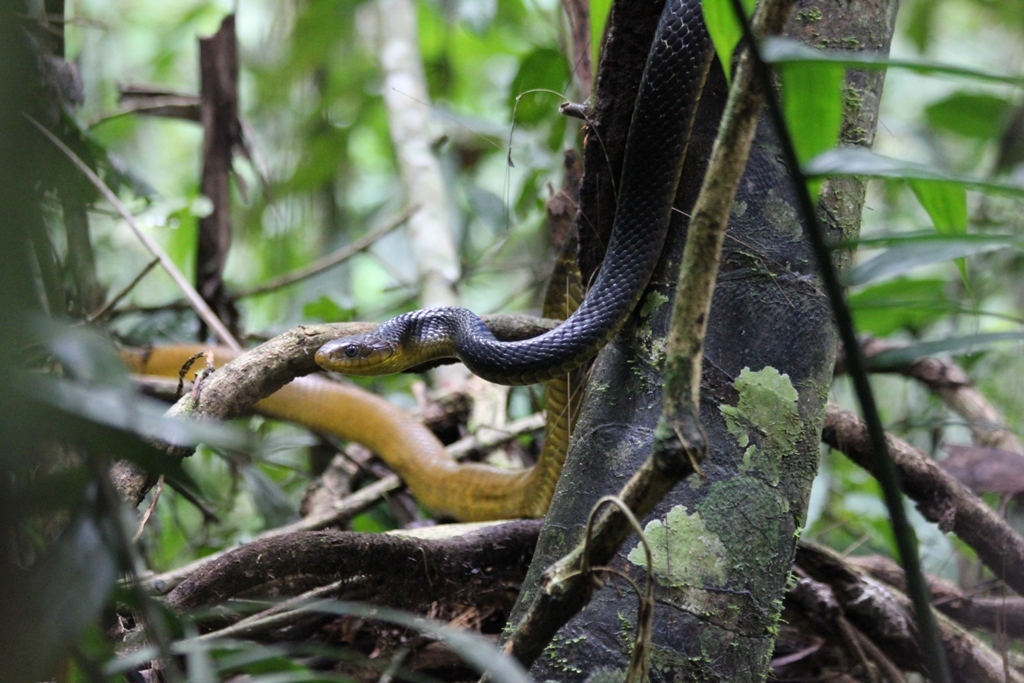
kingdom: Animalia
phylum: Chordata
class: Squamata
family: Colubridae
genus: Drymarchon
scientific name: Drymarchon corais
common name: Indigo snake
